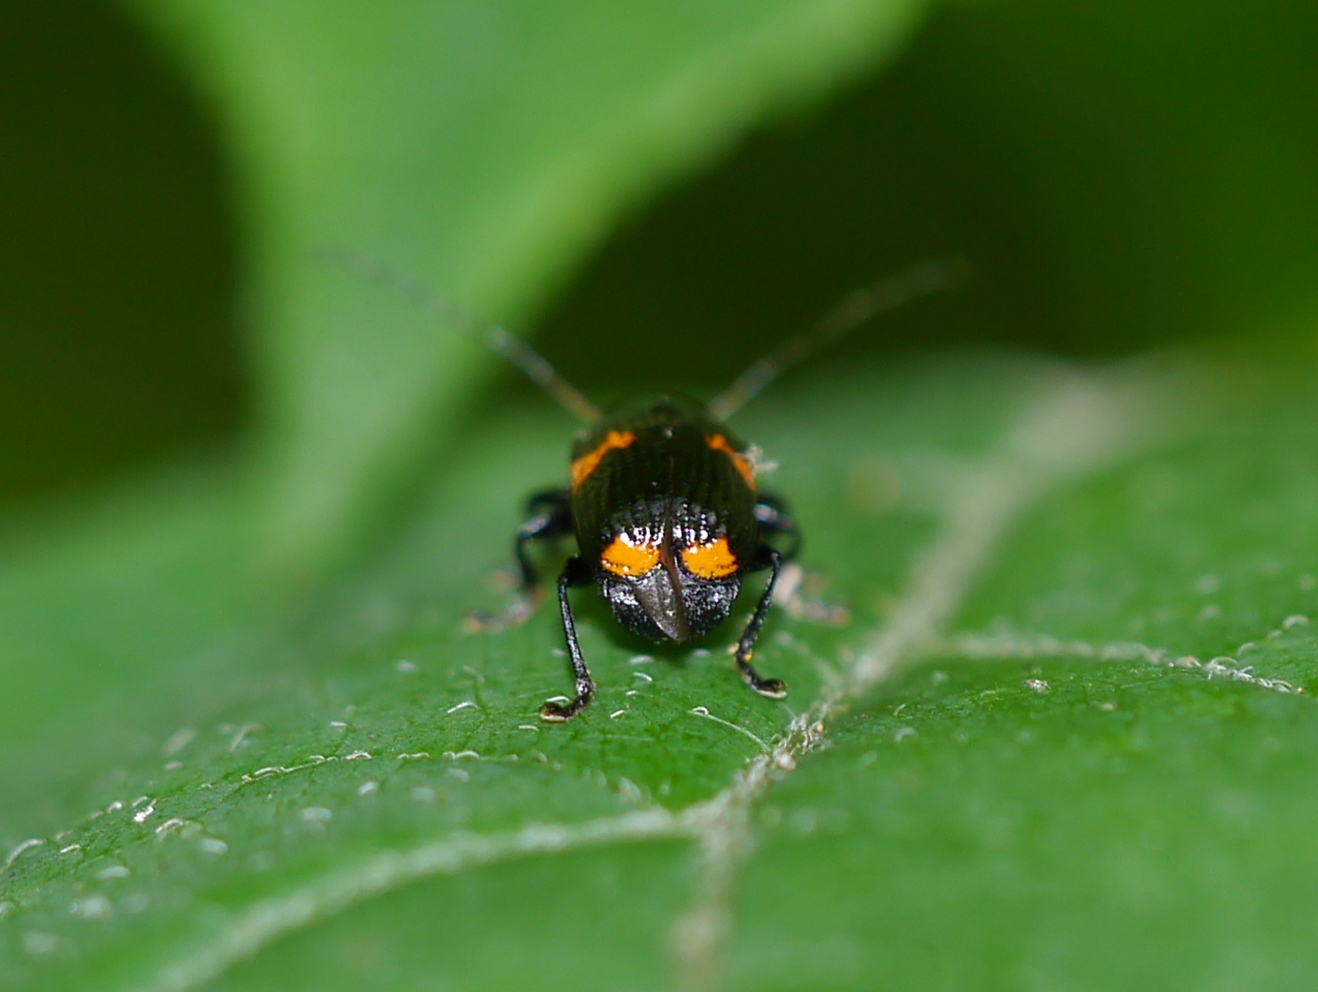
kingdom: Animalia
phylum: Arthropoda
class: Insecta
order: Coleoptera
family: Chrysomelidae
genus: Bassareus
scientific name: Bassareus mammifer
